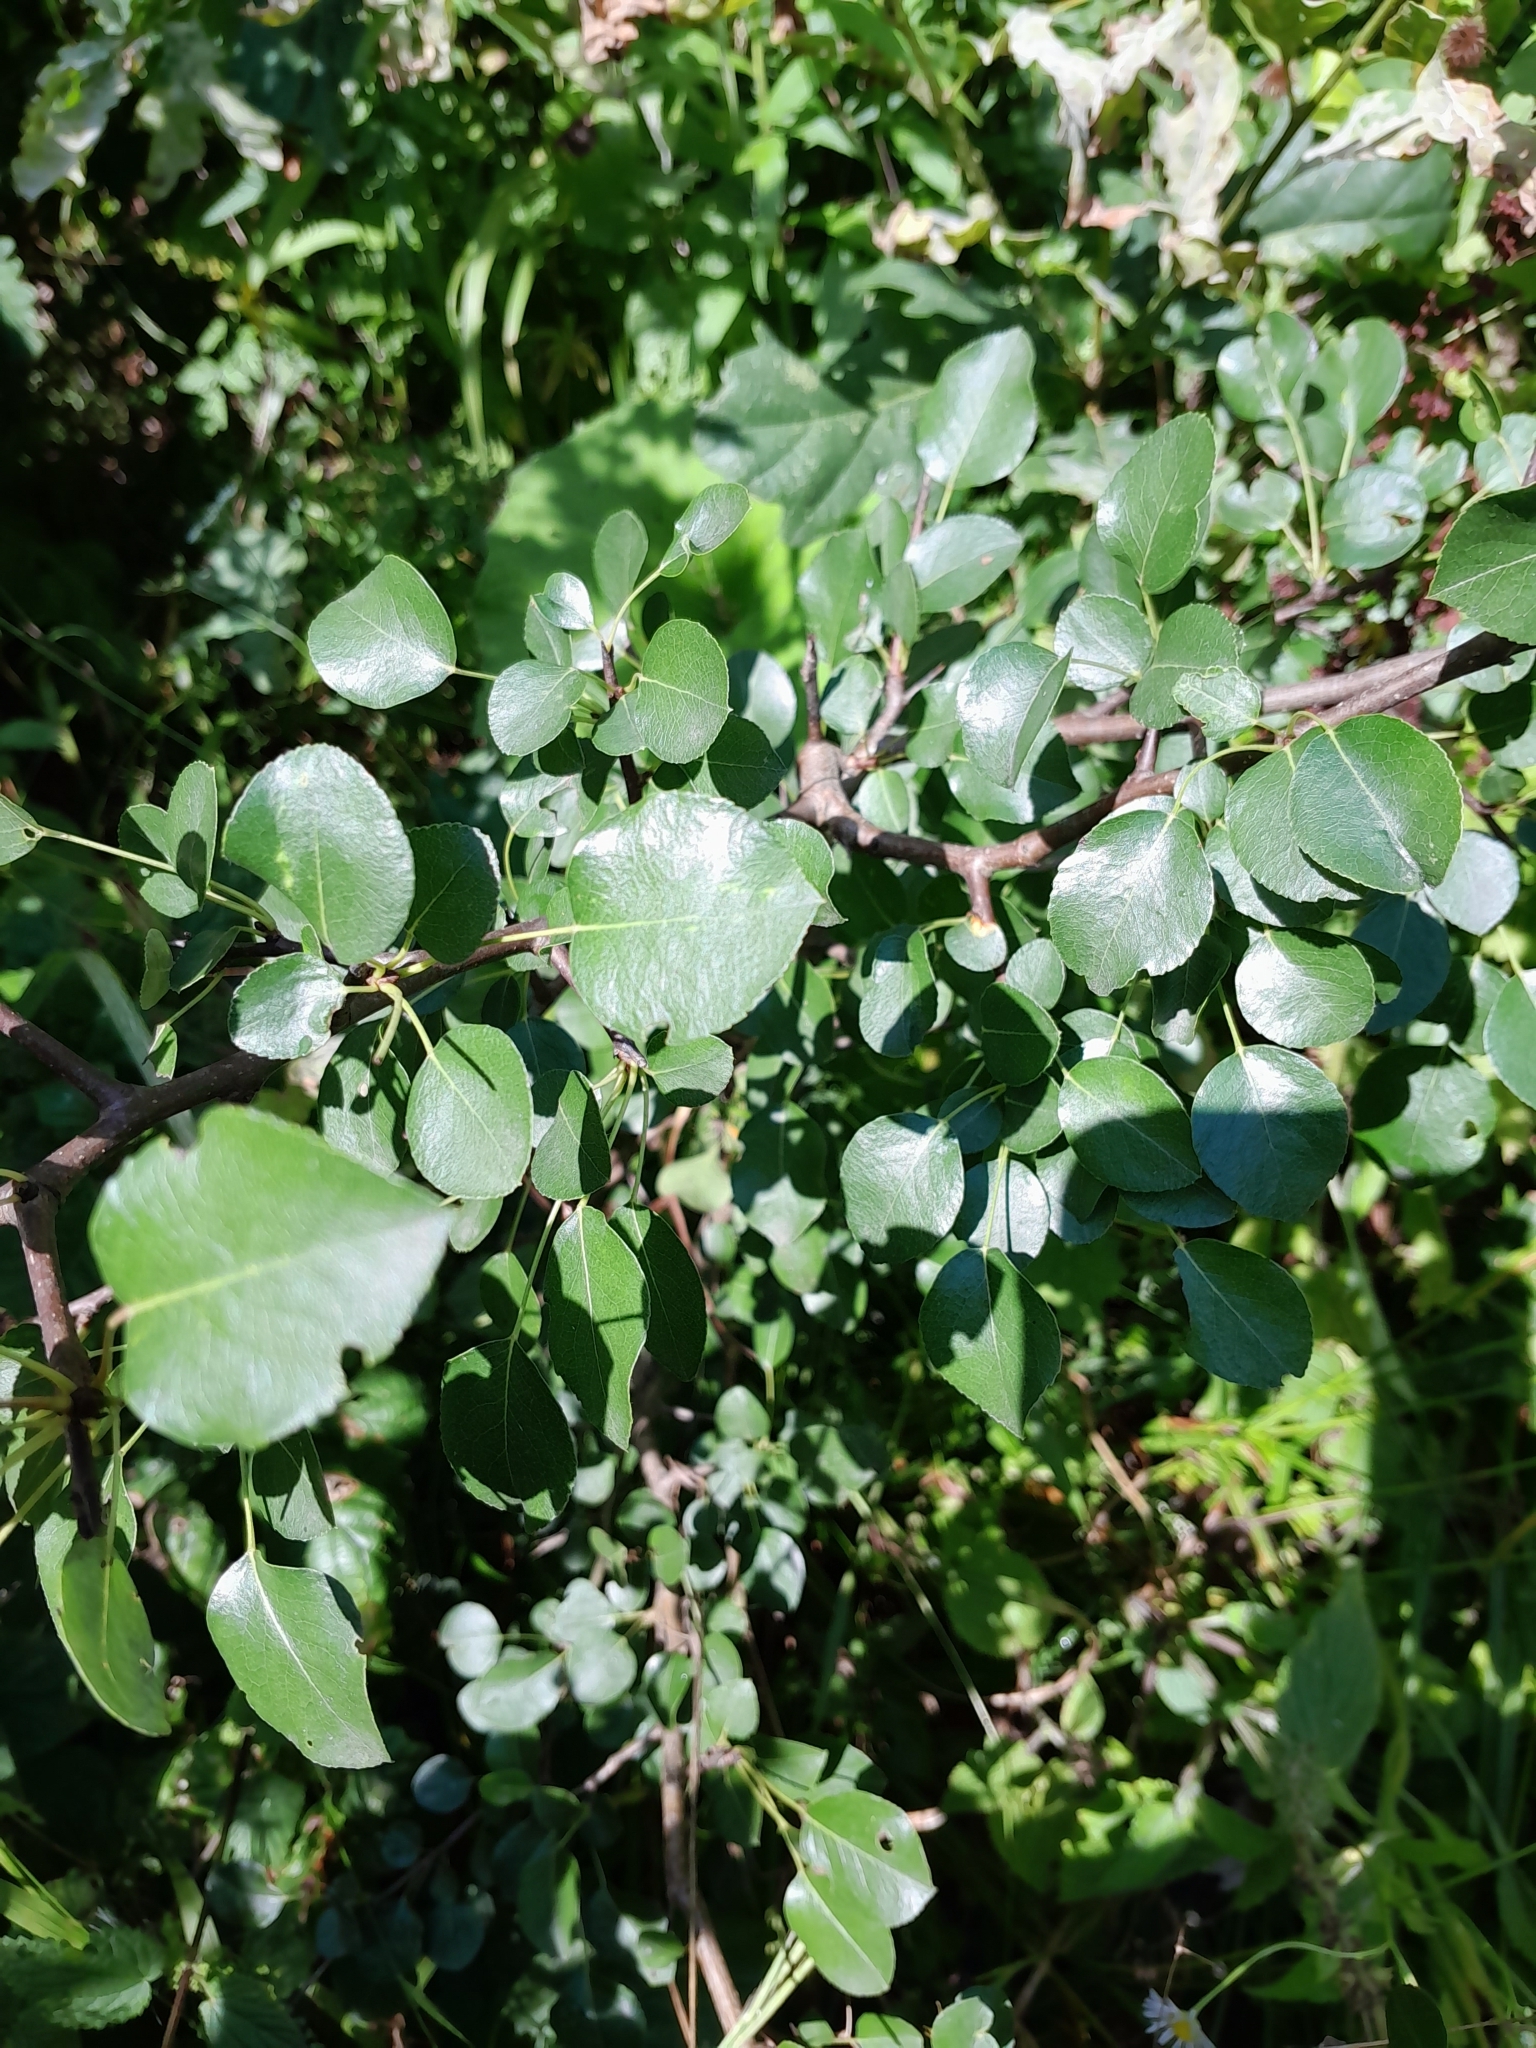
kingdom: Plantae
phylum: Tracheophyta
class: Magnoliopsida
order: Rosales
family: Rosaceae
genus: Pyrus
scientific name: Pyrus
